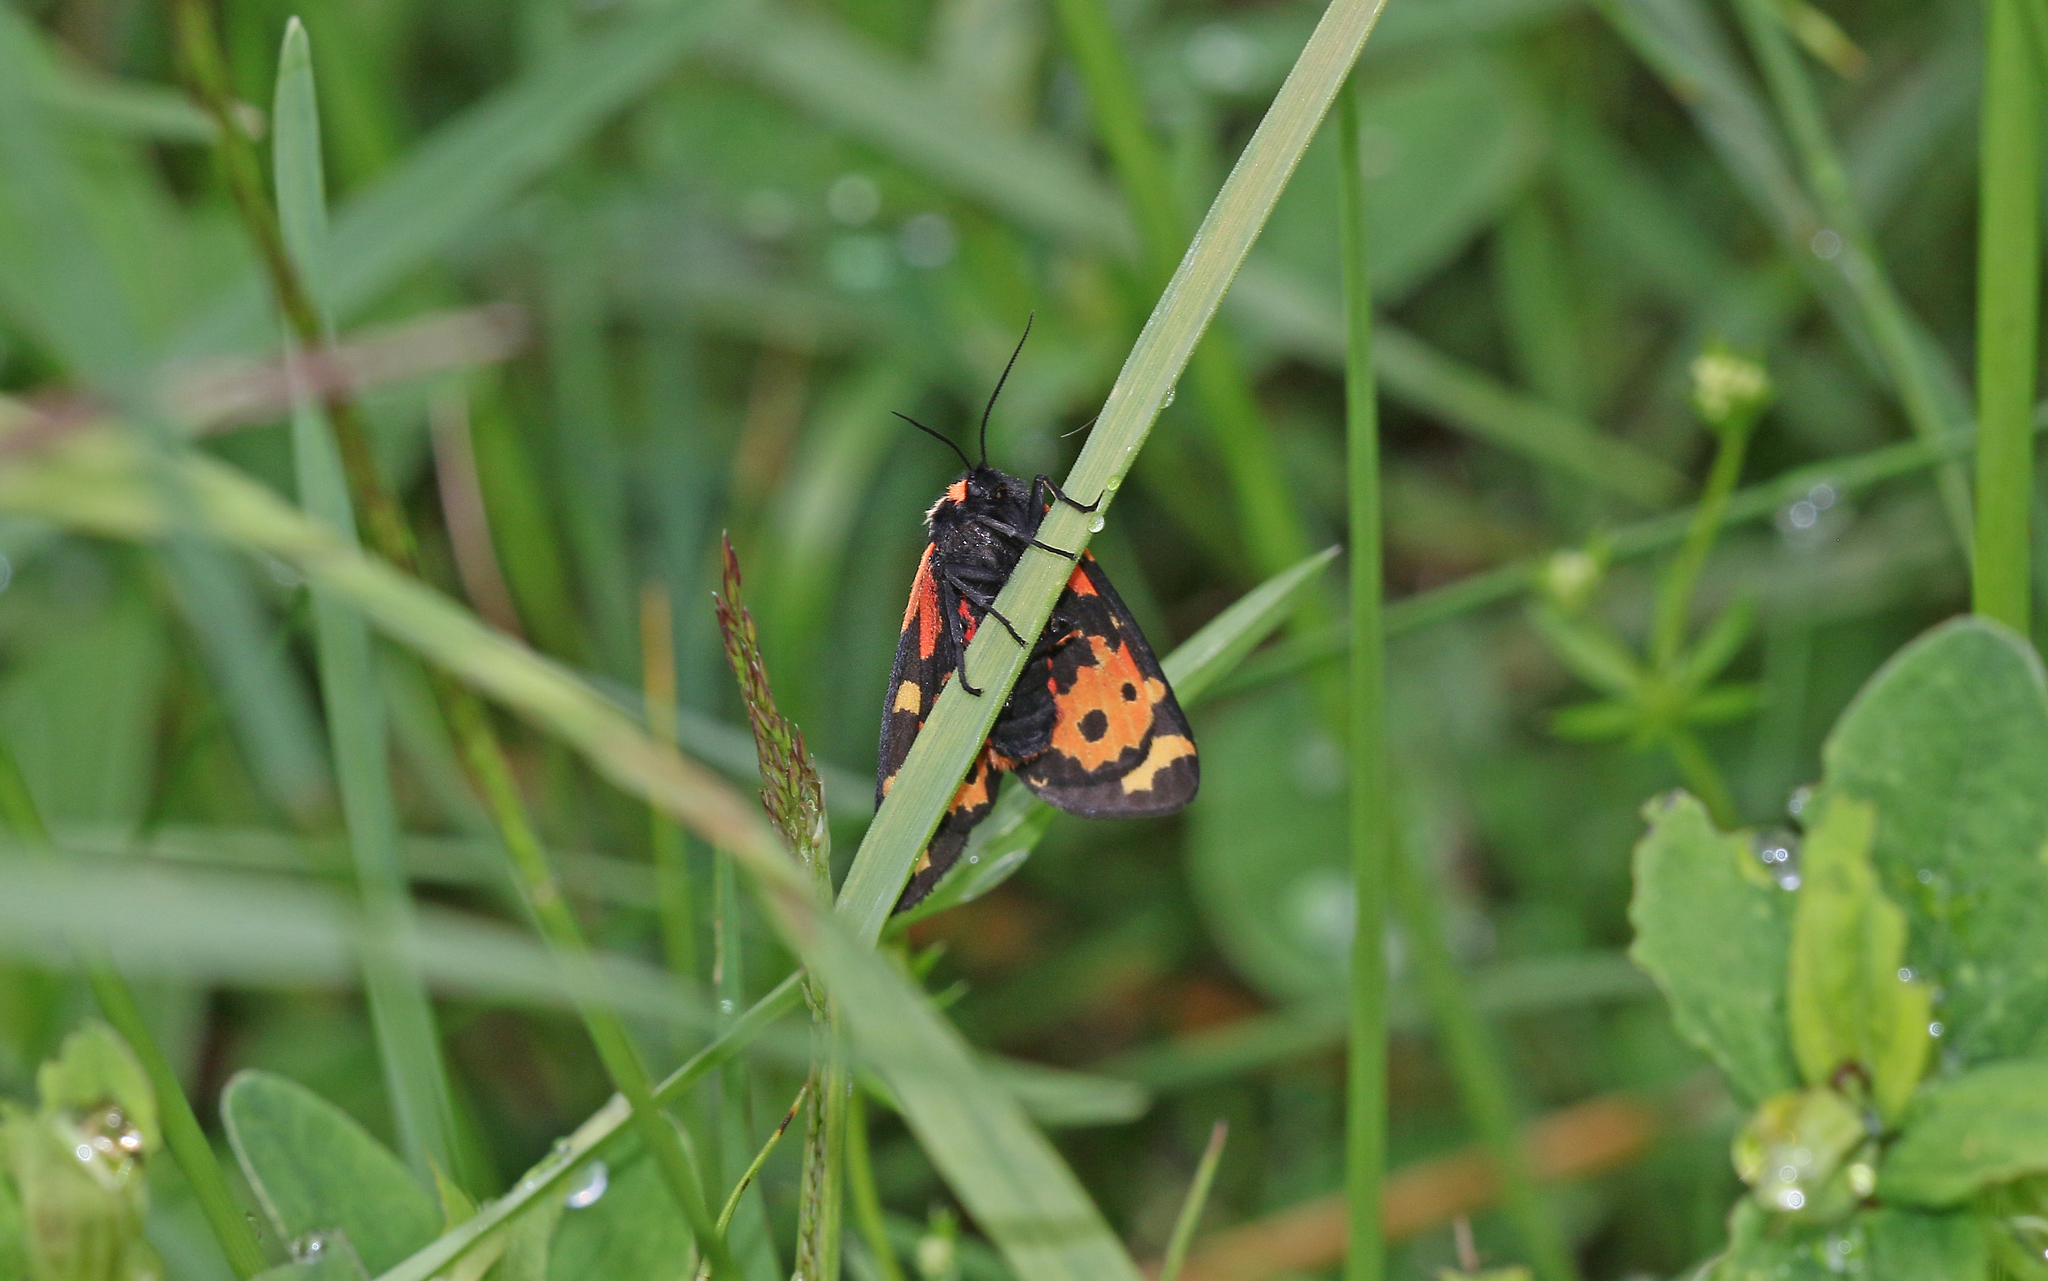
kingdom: Animalia
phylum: Arthropoda
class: Insecta
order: Lepidoptera
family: Erebidae
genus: Parasemia
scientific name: Parasemia plantaginis
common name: Wood tiger
